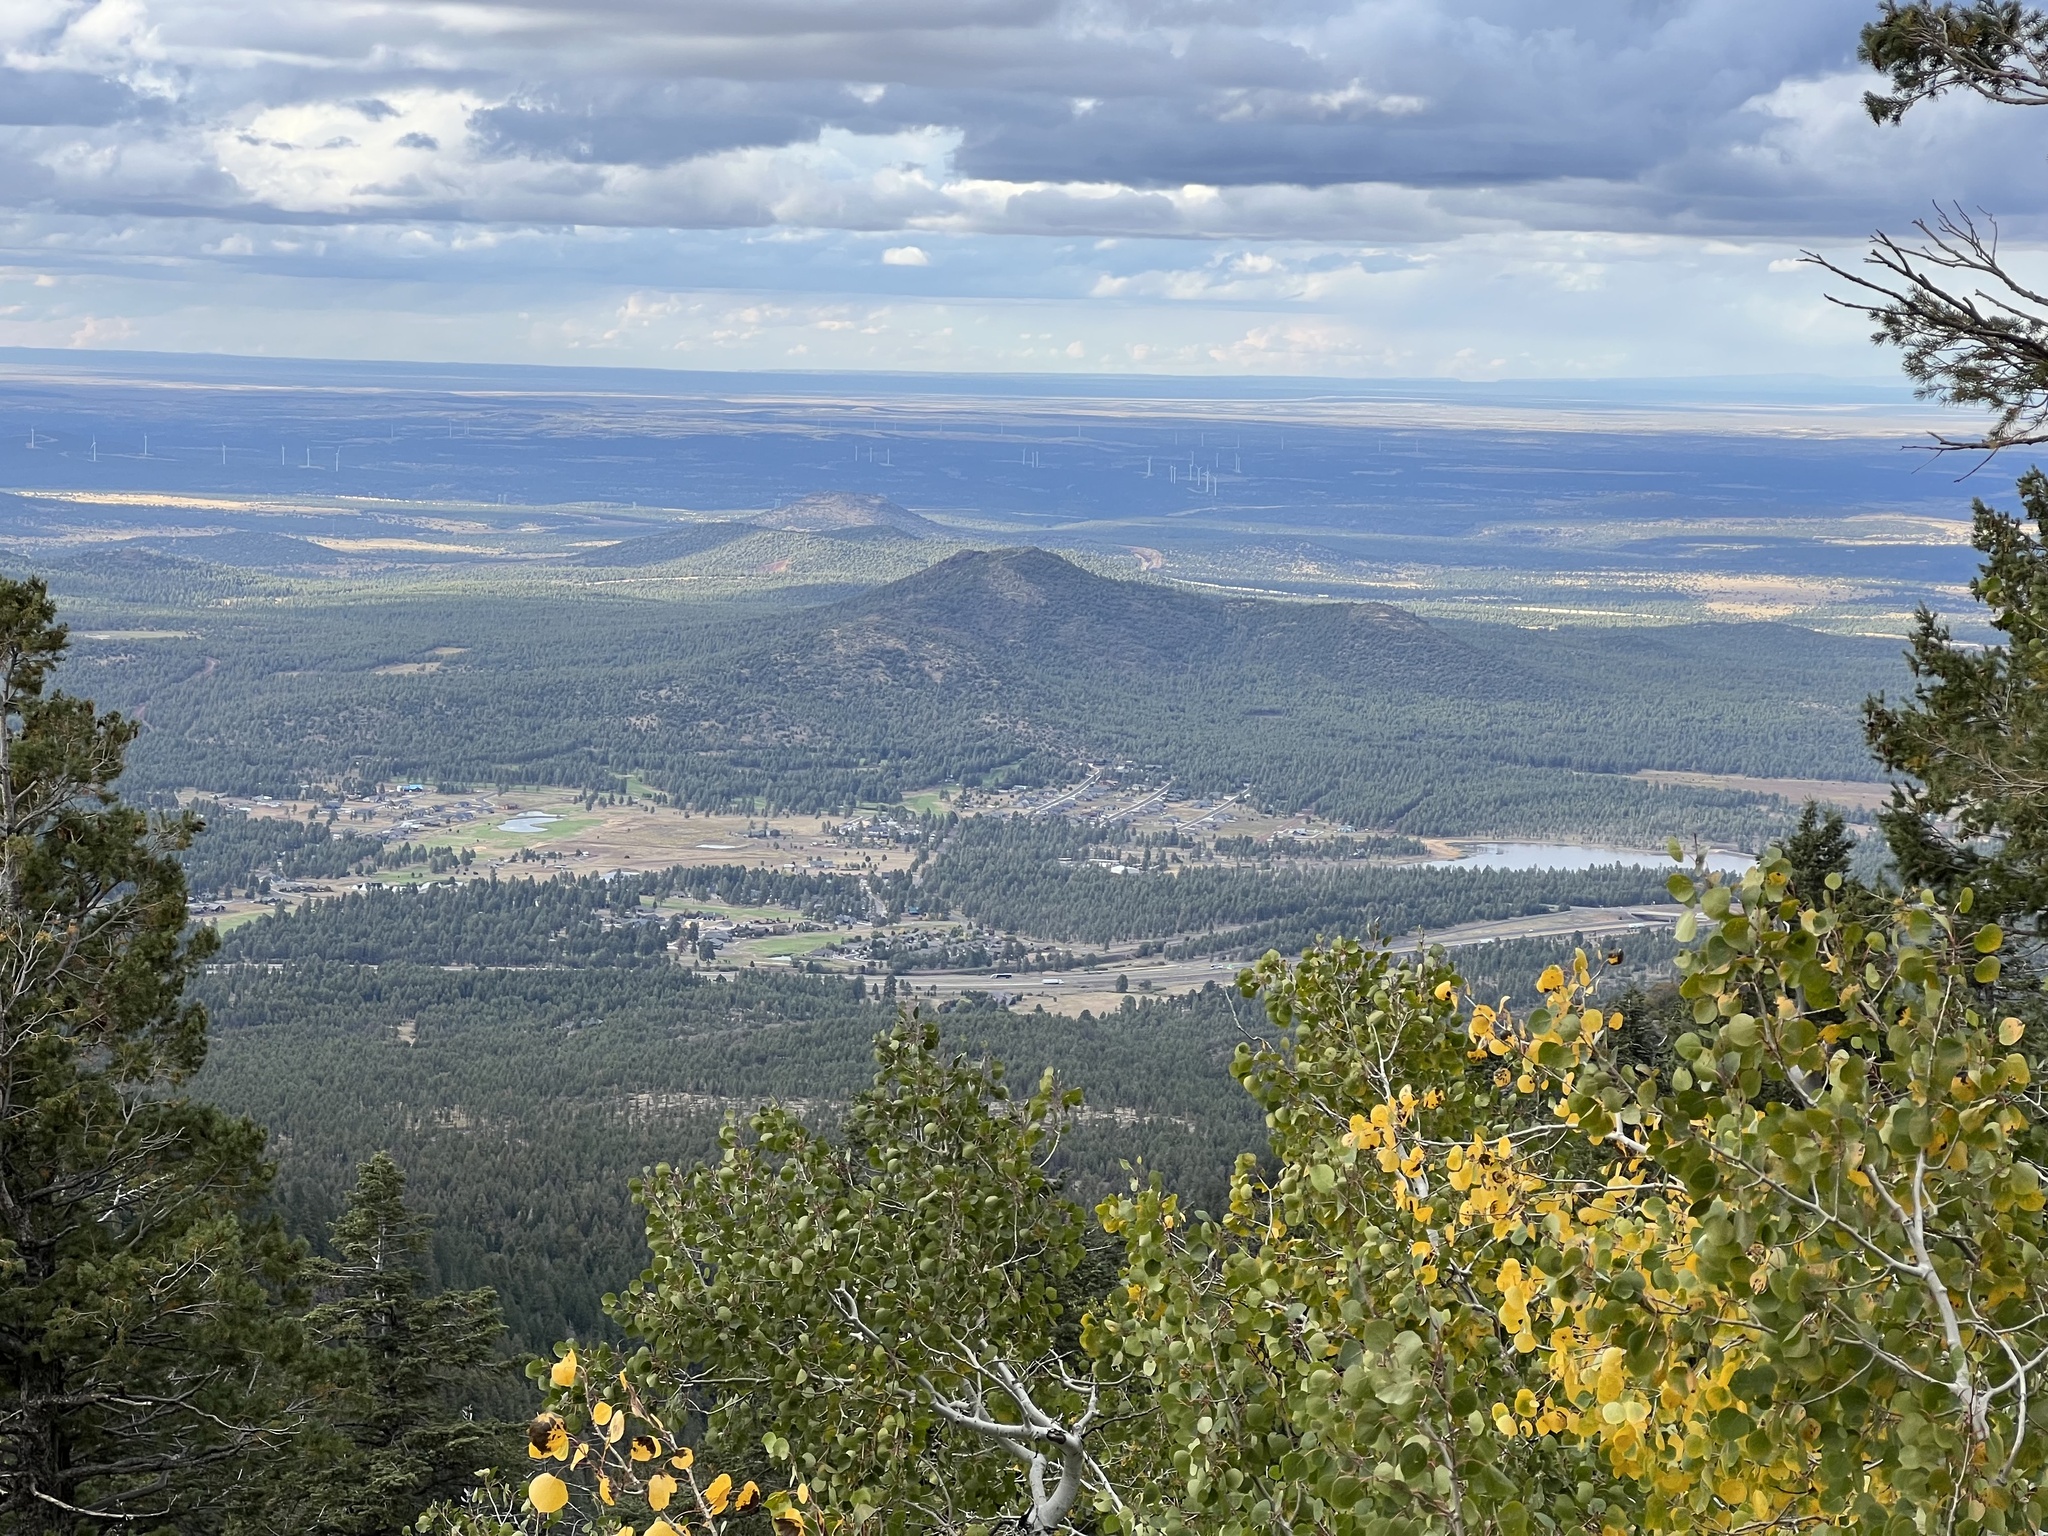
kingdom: Plantae
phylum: Tracheophyta
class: Magnoliopsida
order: Malpighiales
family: Salicaceae
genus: Populus
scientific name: Populus tremuloides
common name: Quaking aspen
